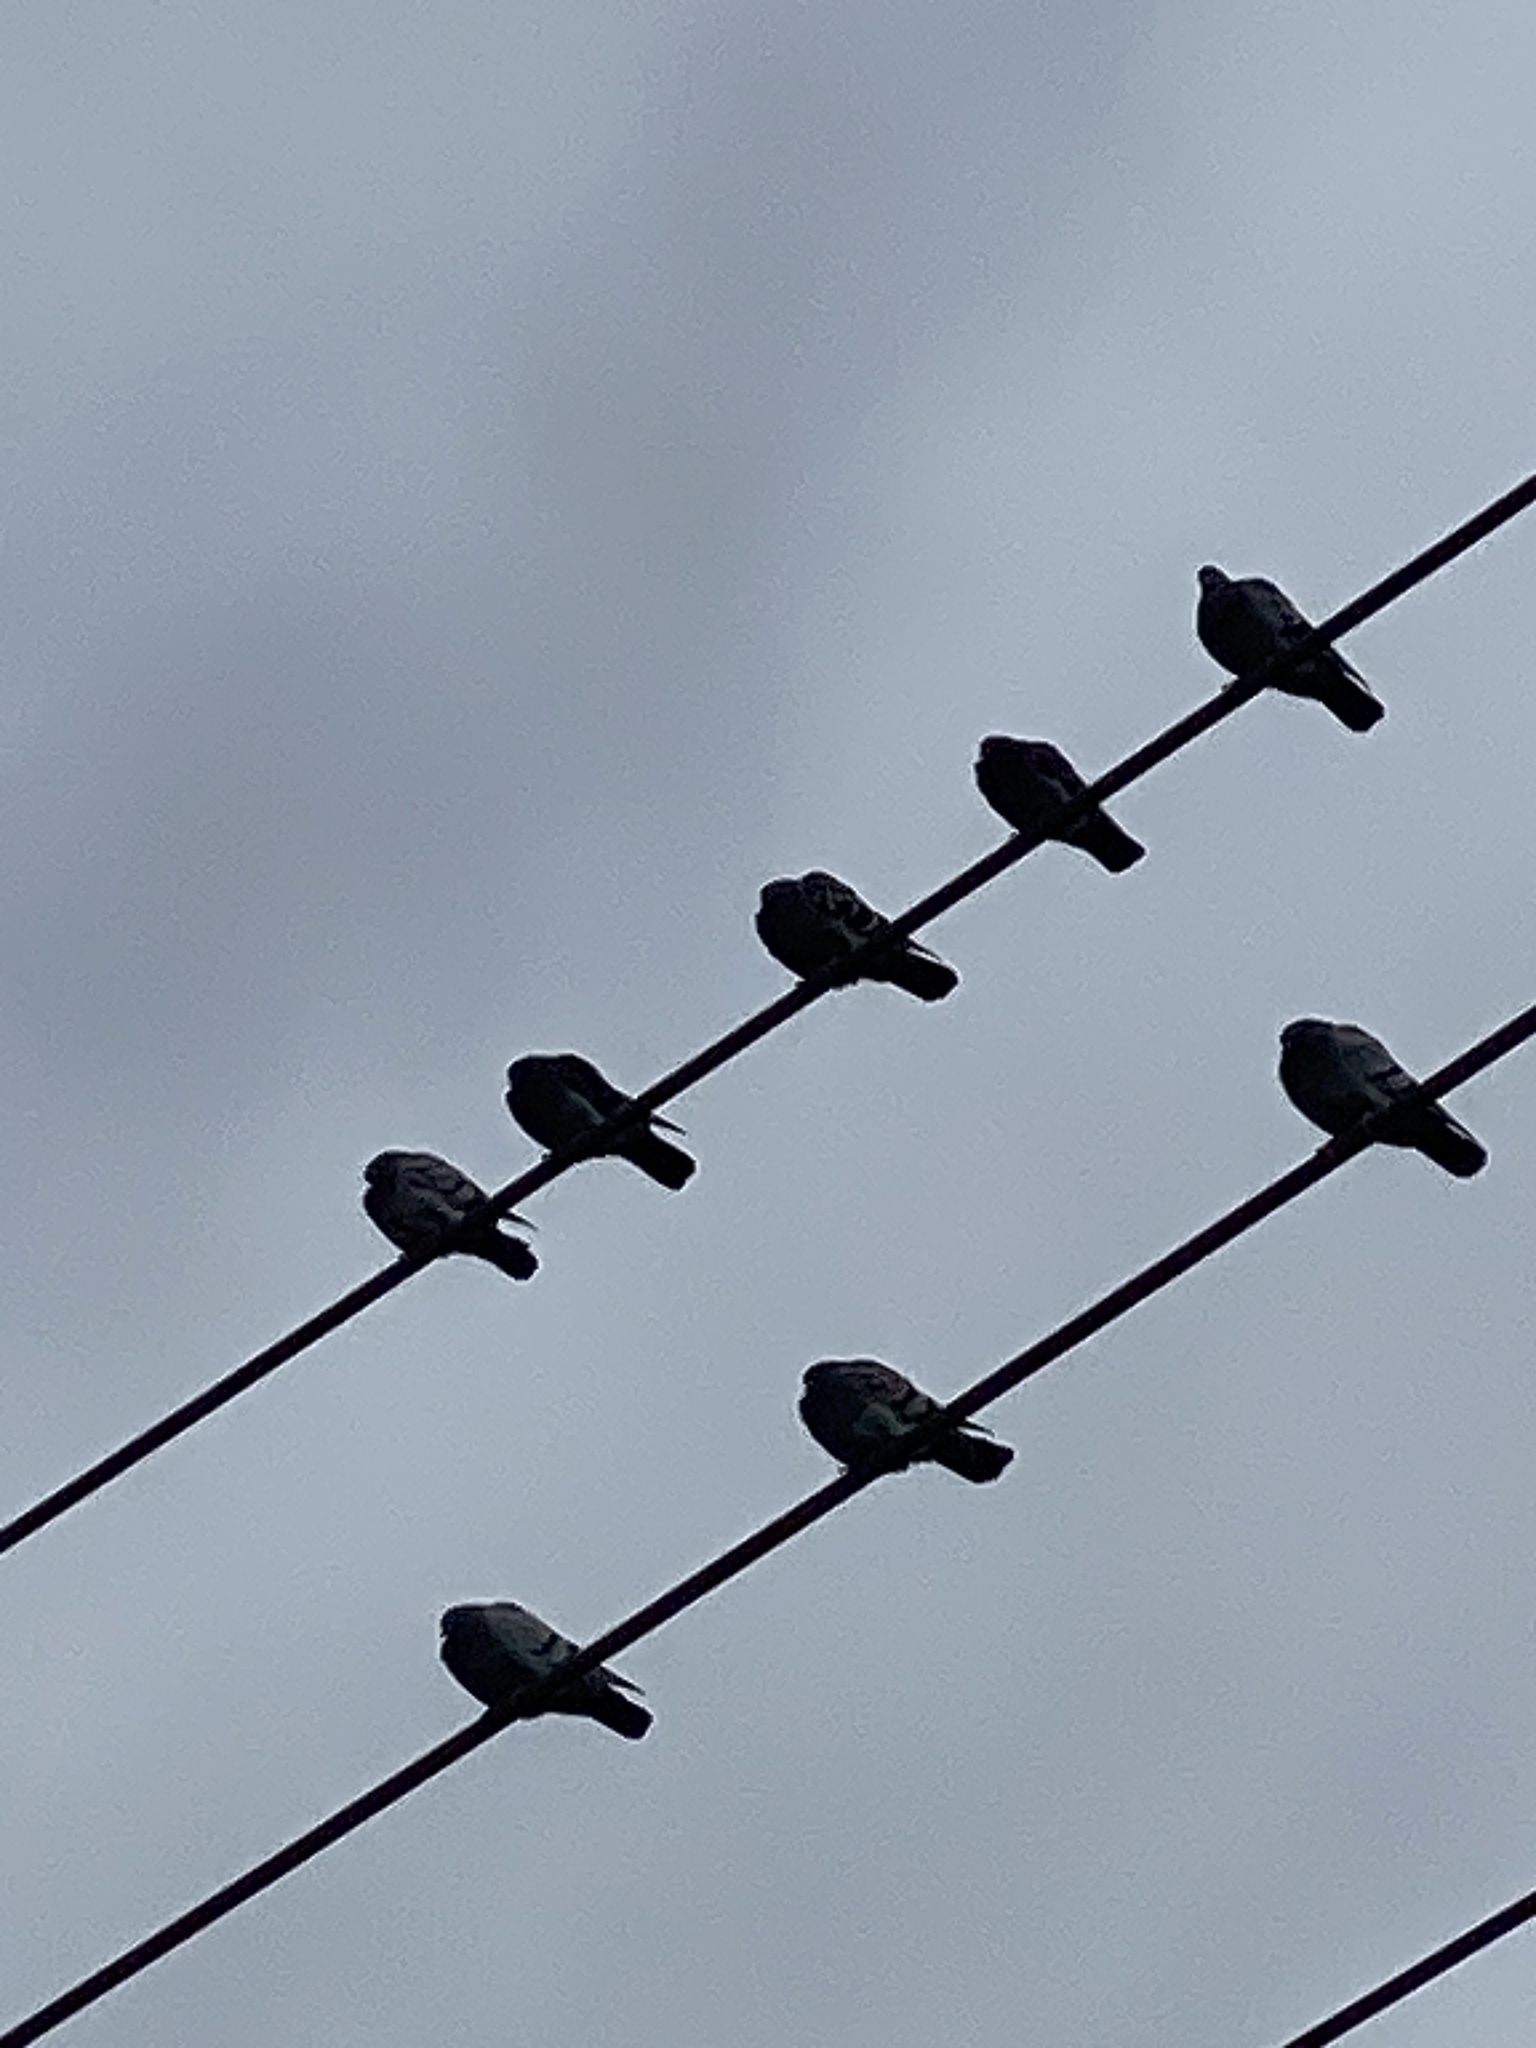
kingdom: Animalia
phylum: Chordata
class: Aves
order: Columbiformes
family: Columbidae
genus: Columba
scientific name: Columba livia
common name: Rock pigeon
